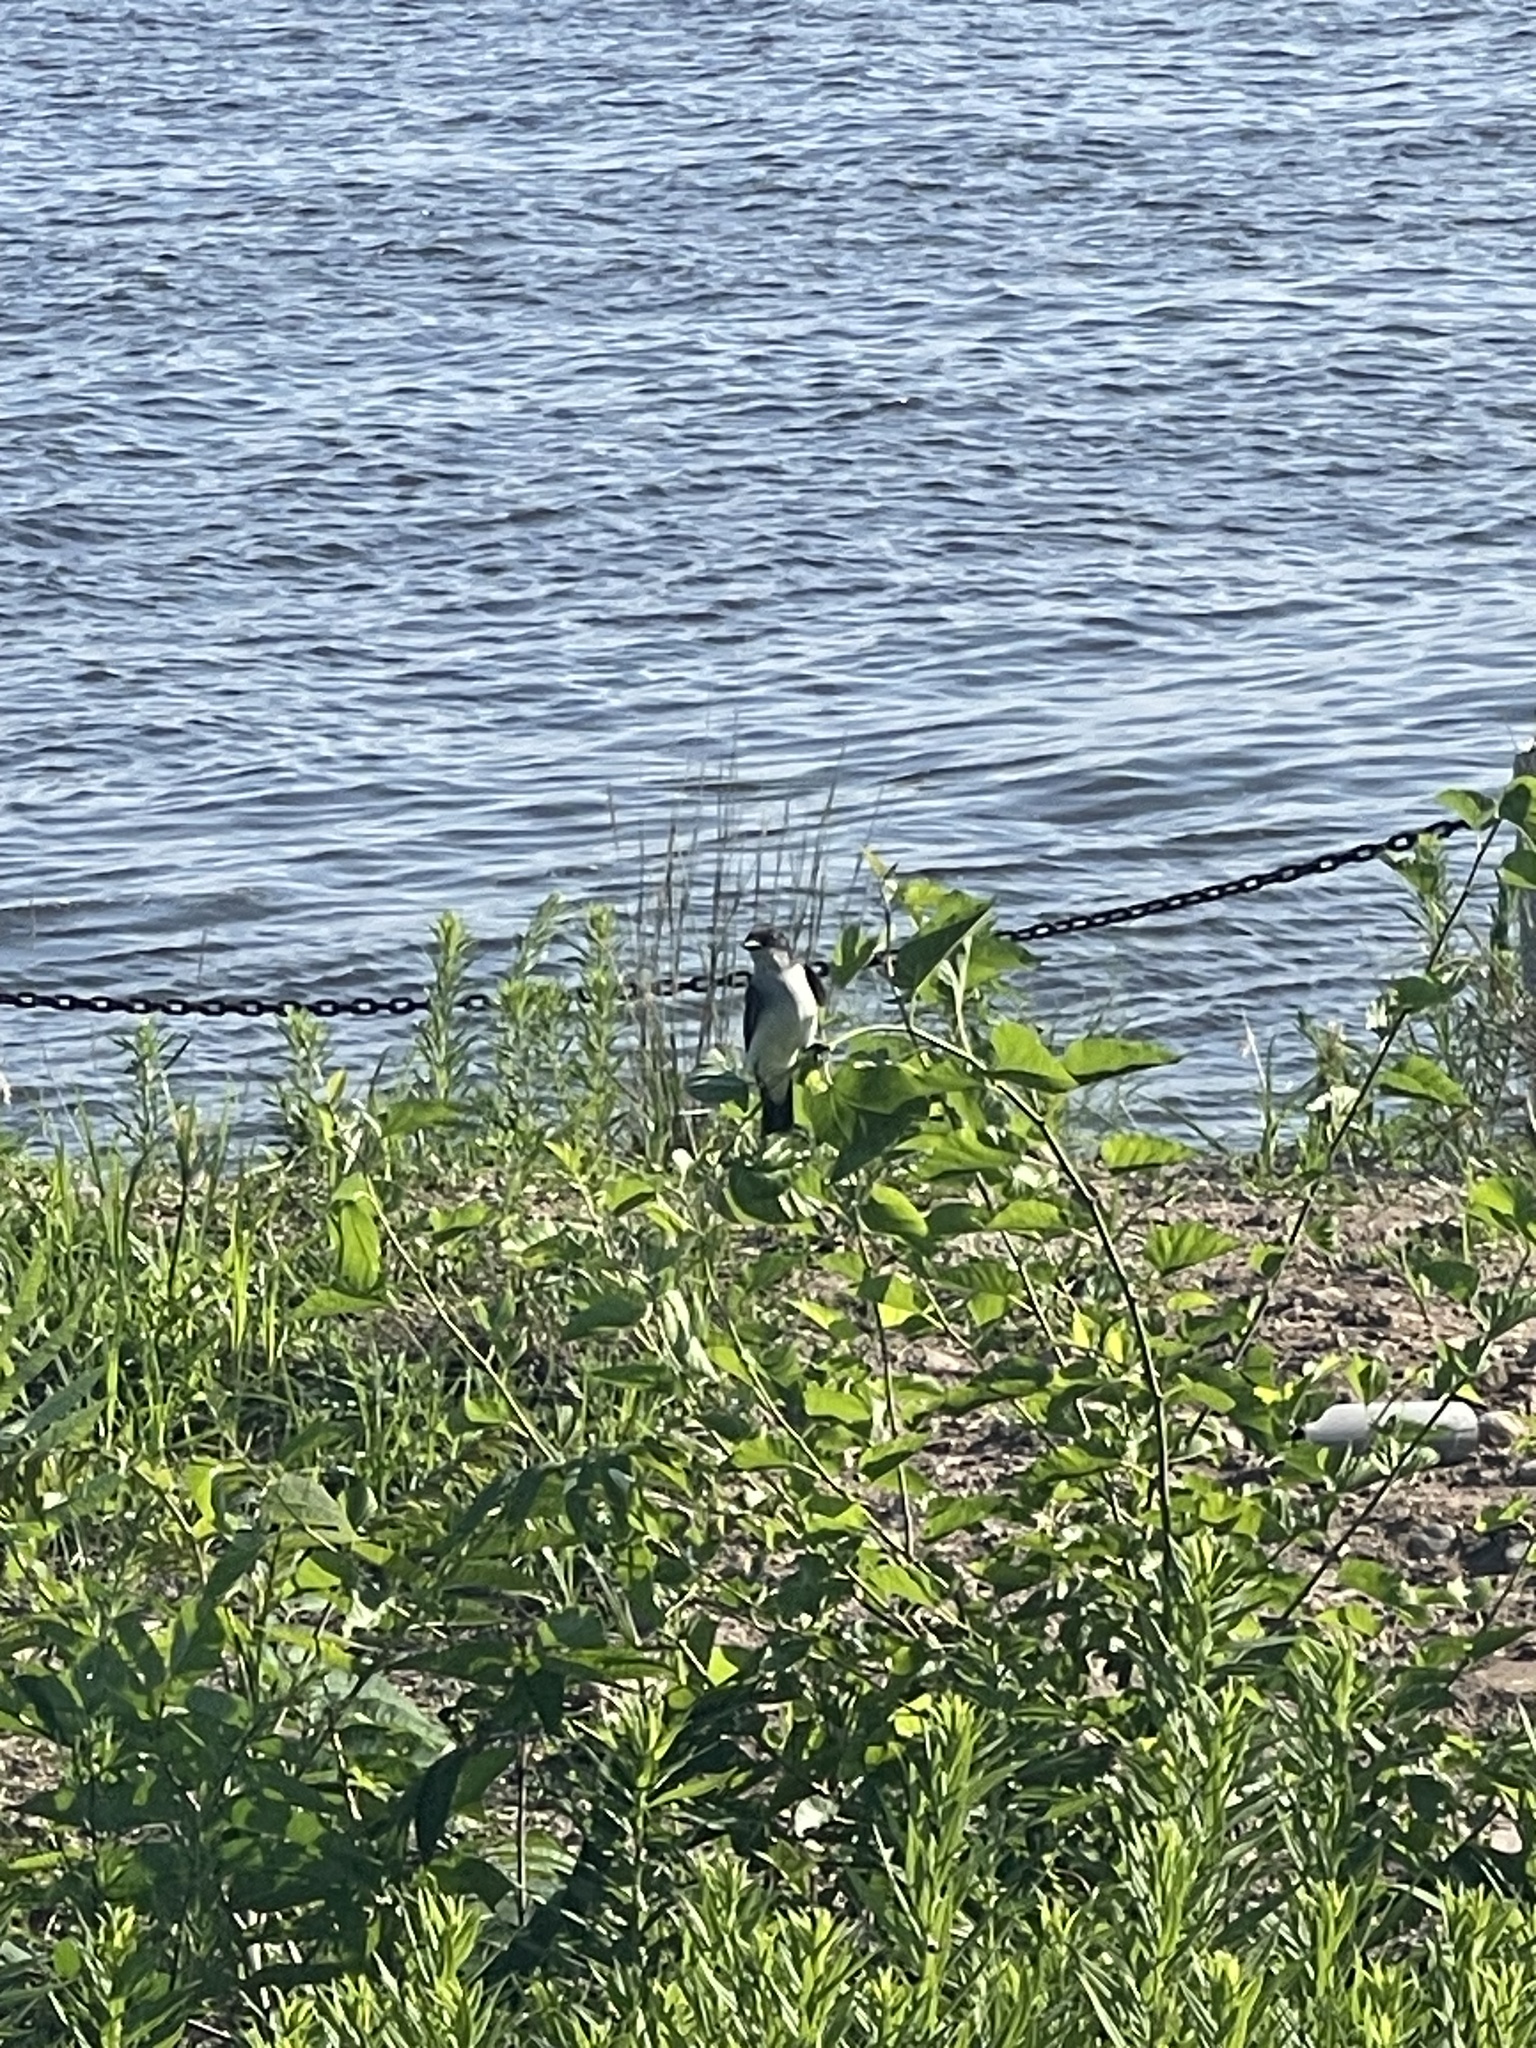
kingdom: Animalia
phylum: Chordata
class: Aves
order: Passeriformes
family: Tyrannidae
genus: Tyrannus
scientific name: Tyrannus tyrannus
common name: Eastern kingbird
